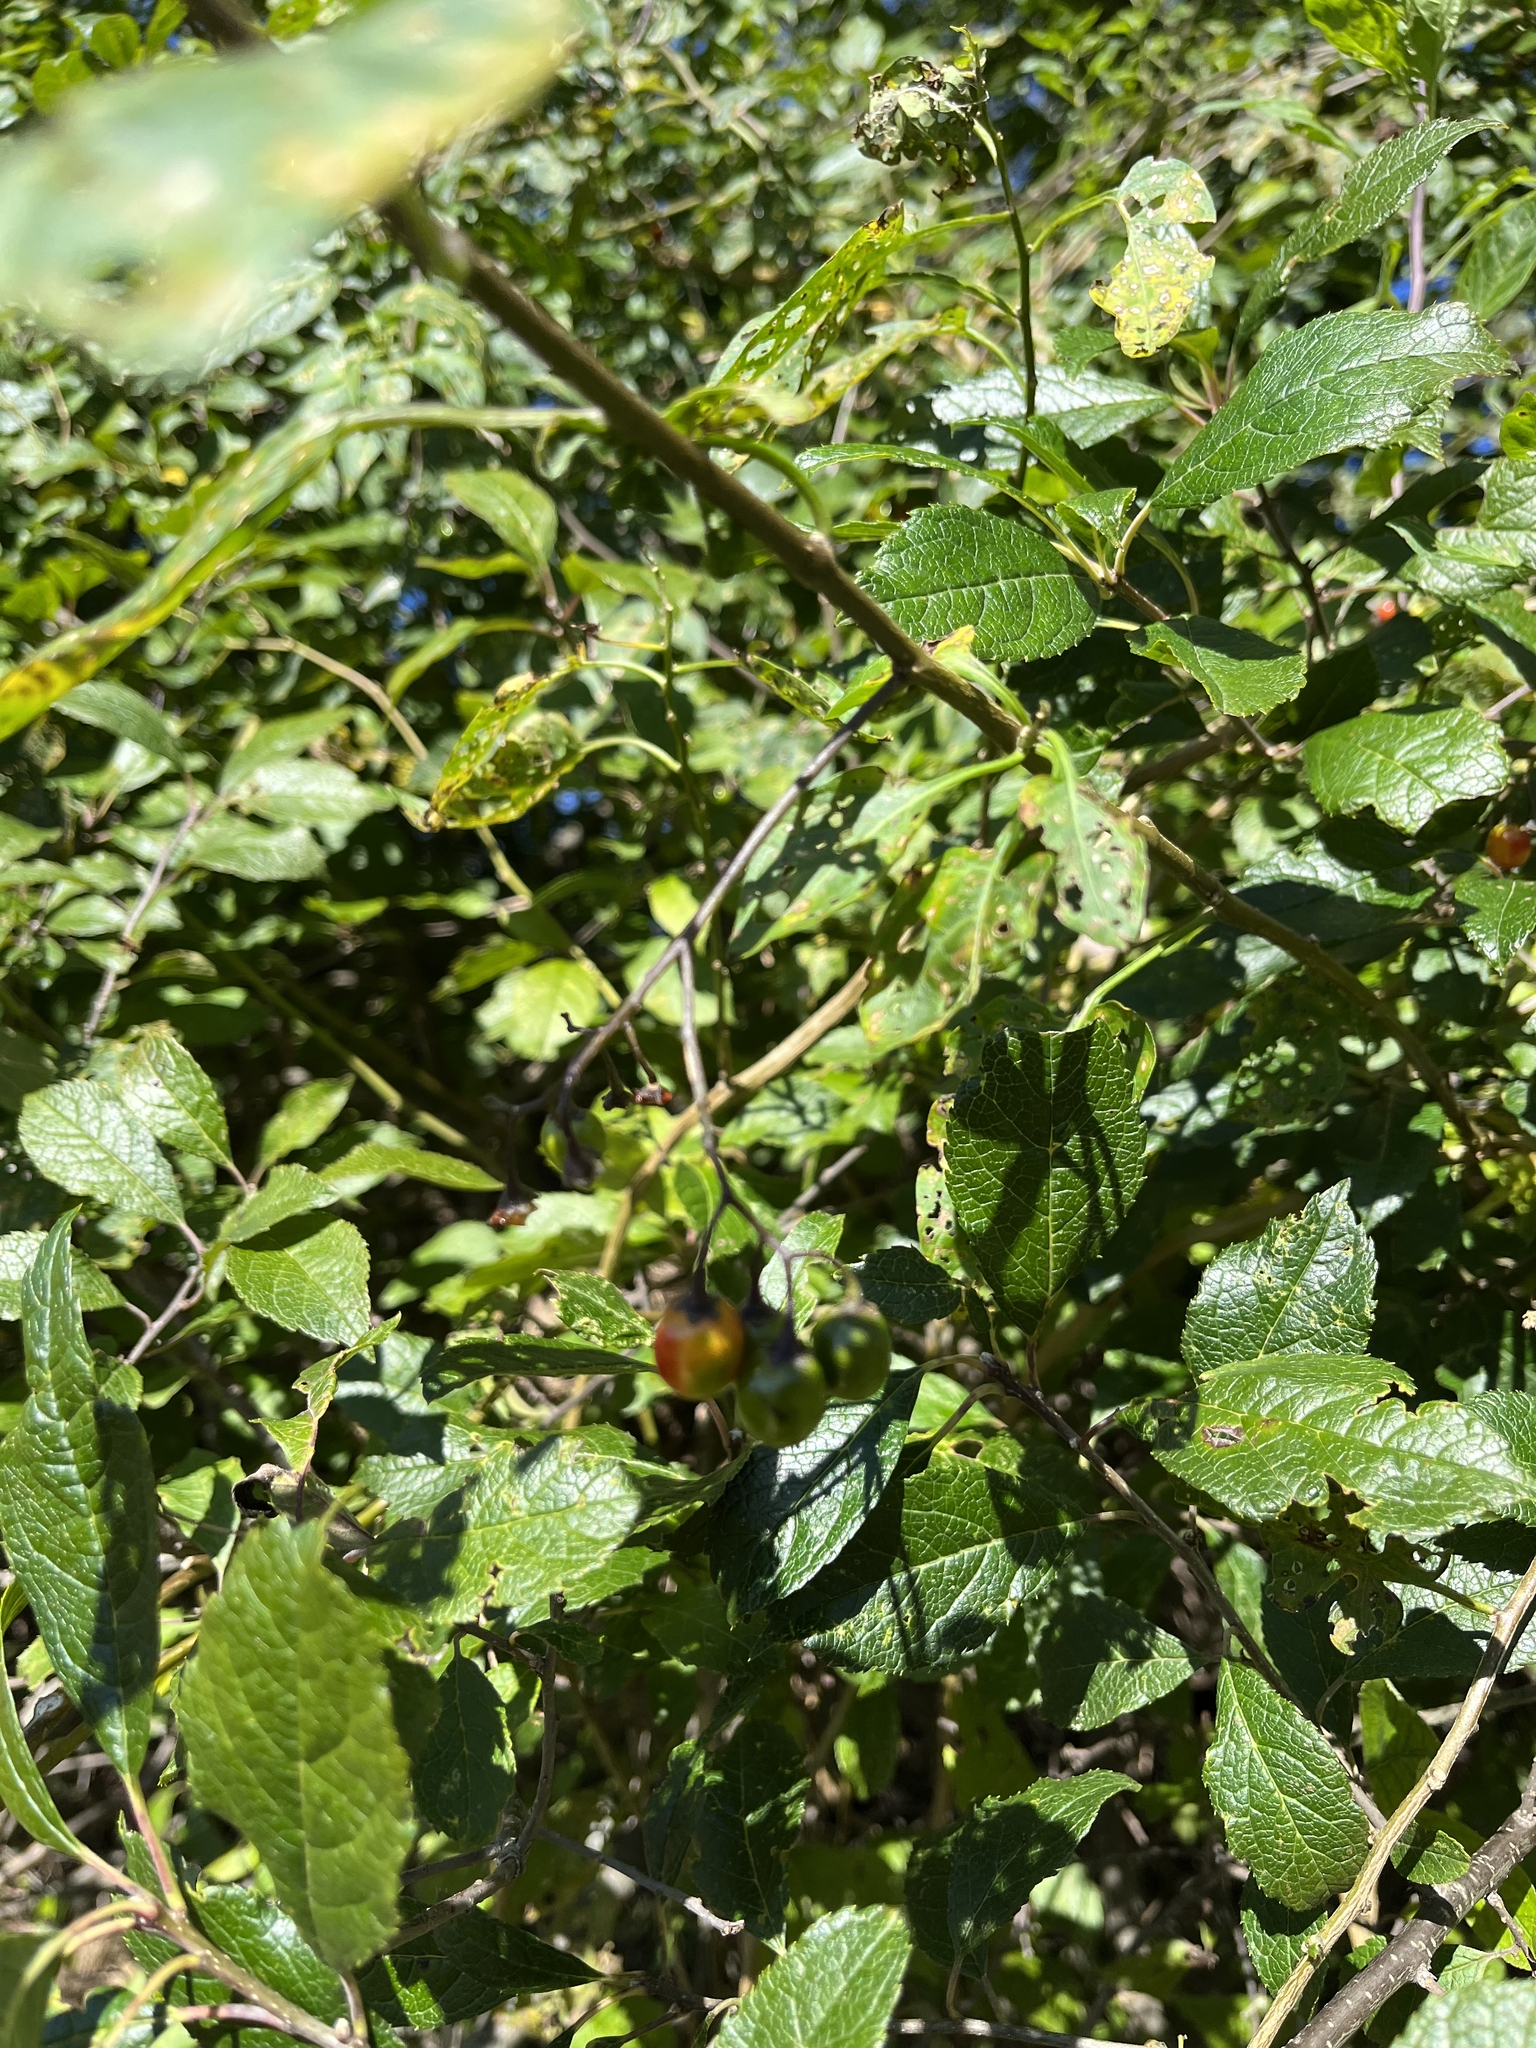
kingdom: Plantae
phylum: Tracheophyta
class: Magnoliopsida
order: Solanales
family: Solanaceae
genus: Solanum
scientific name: Solanum dulcamara
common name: Climbing nightshade
